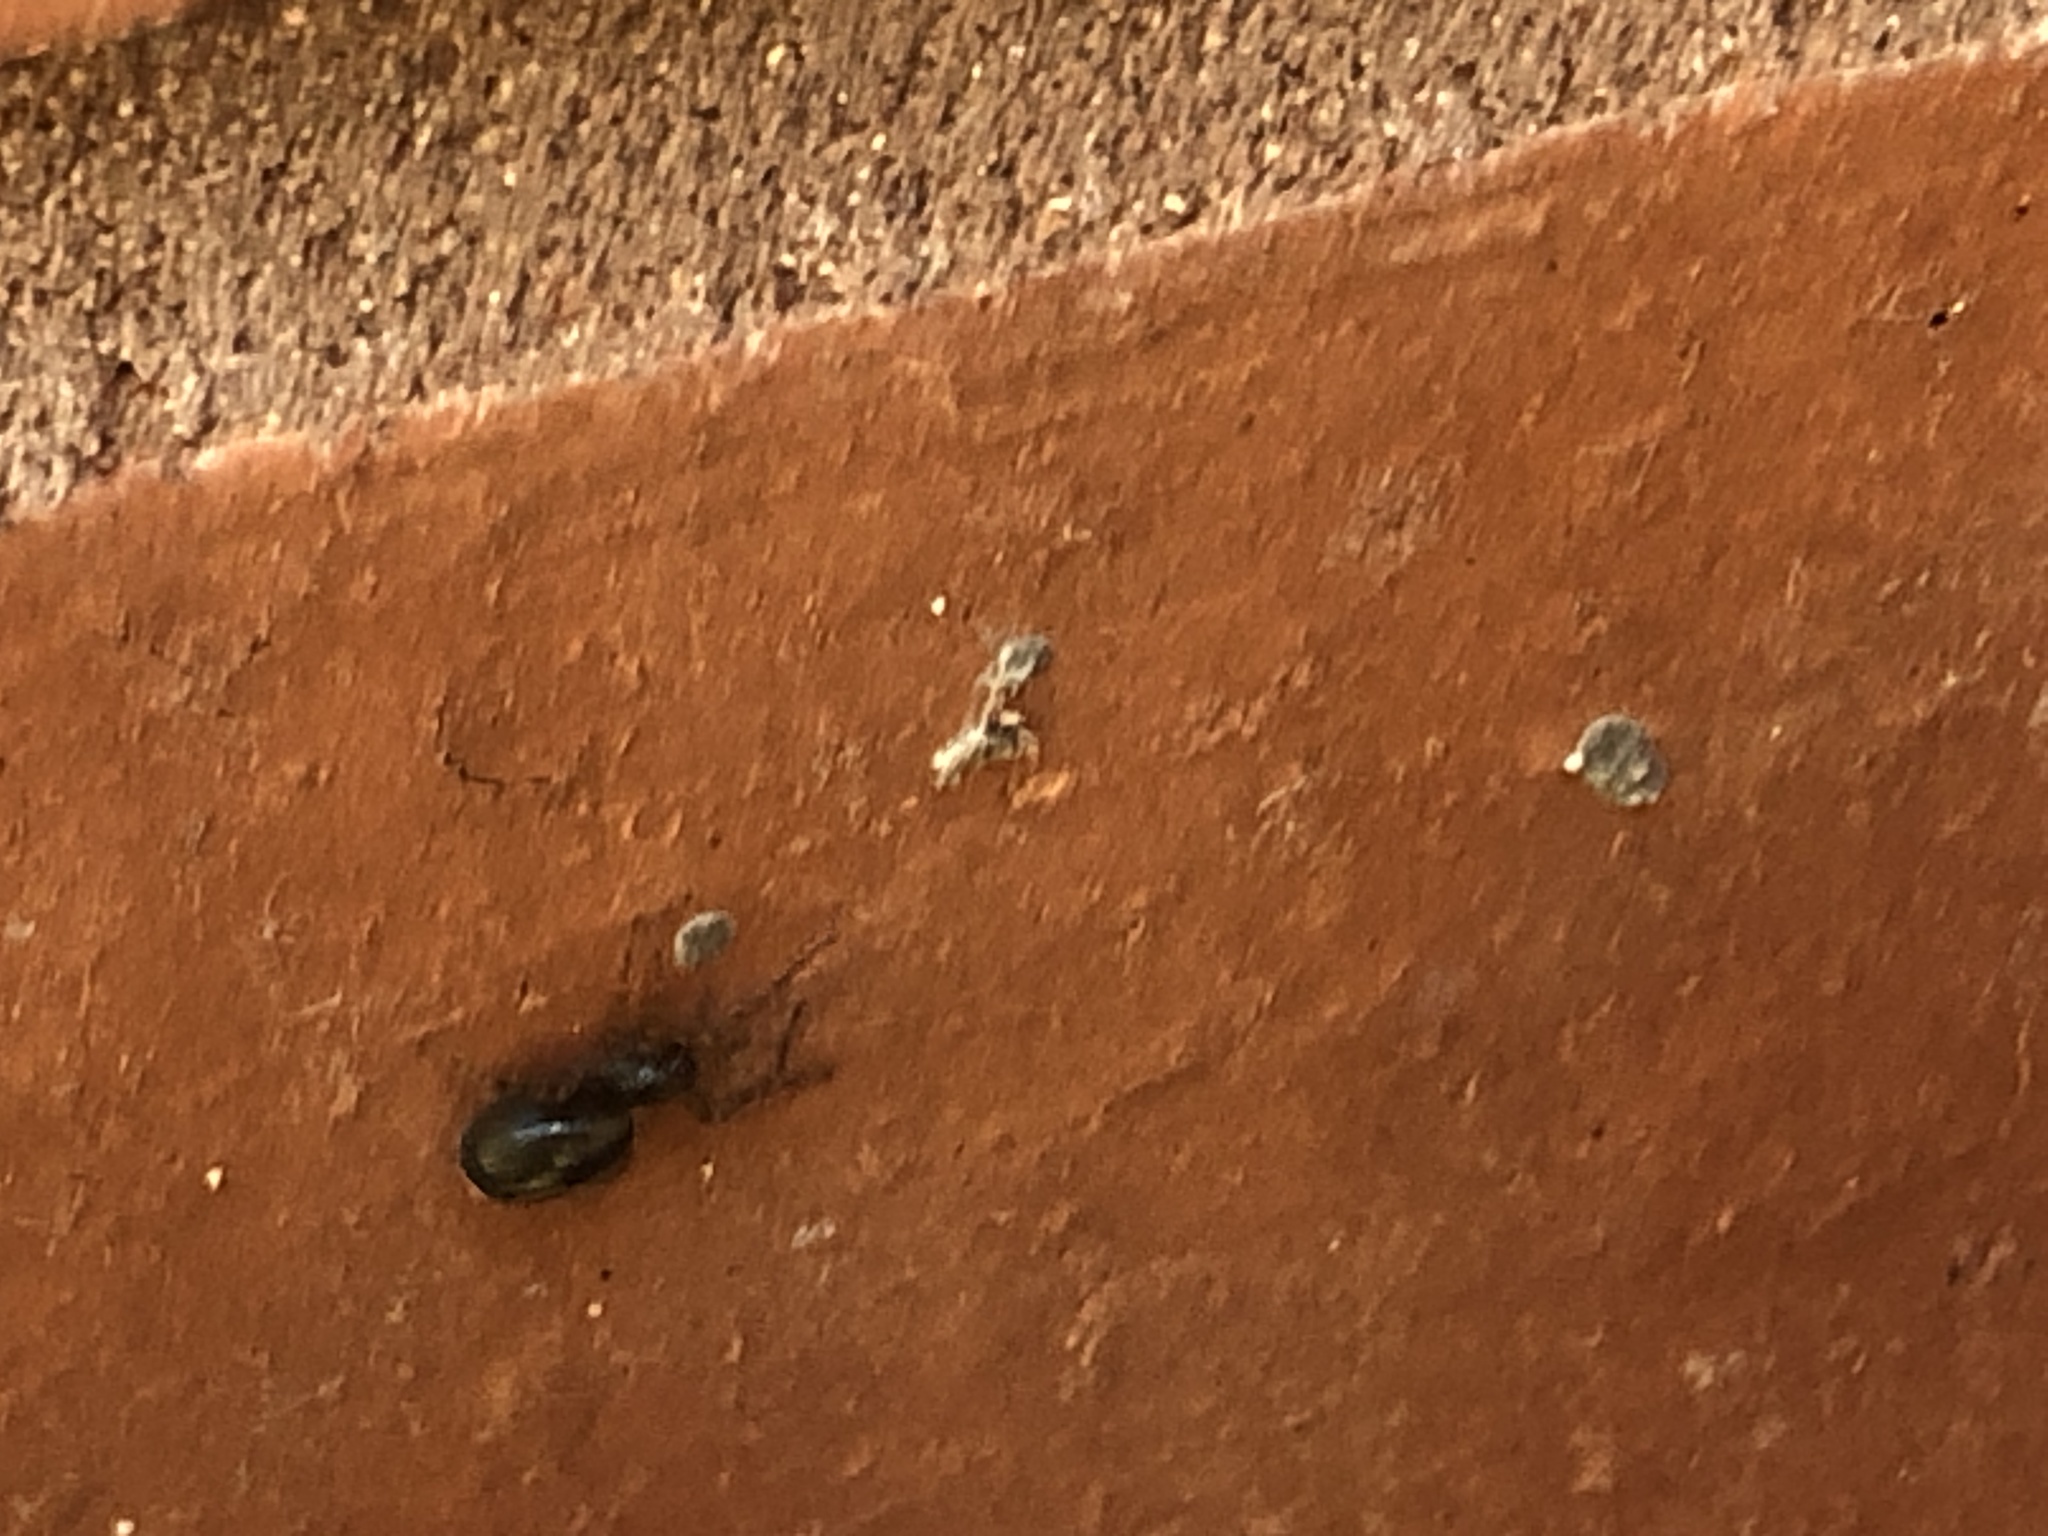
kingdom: Animalia
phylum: Arthropoda
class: Arachnida
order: Araneae
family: Amaurobiidae
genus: Amaurobius
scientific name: Amaurobius
